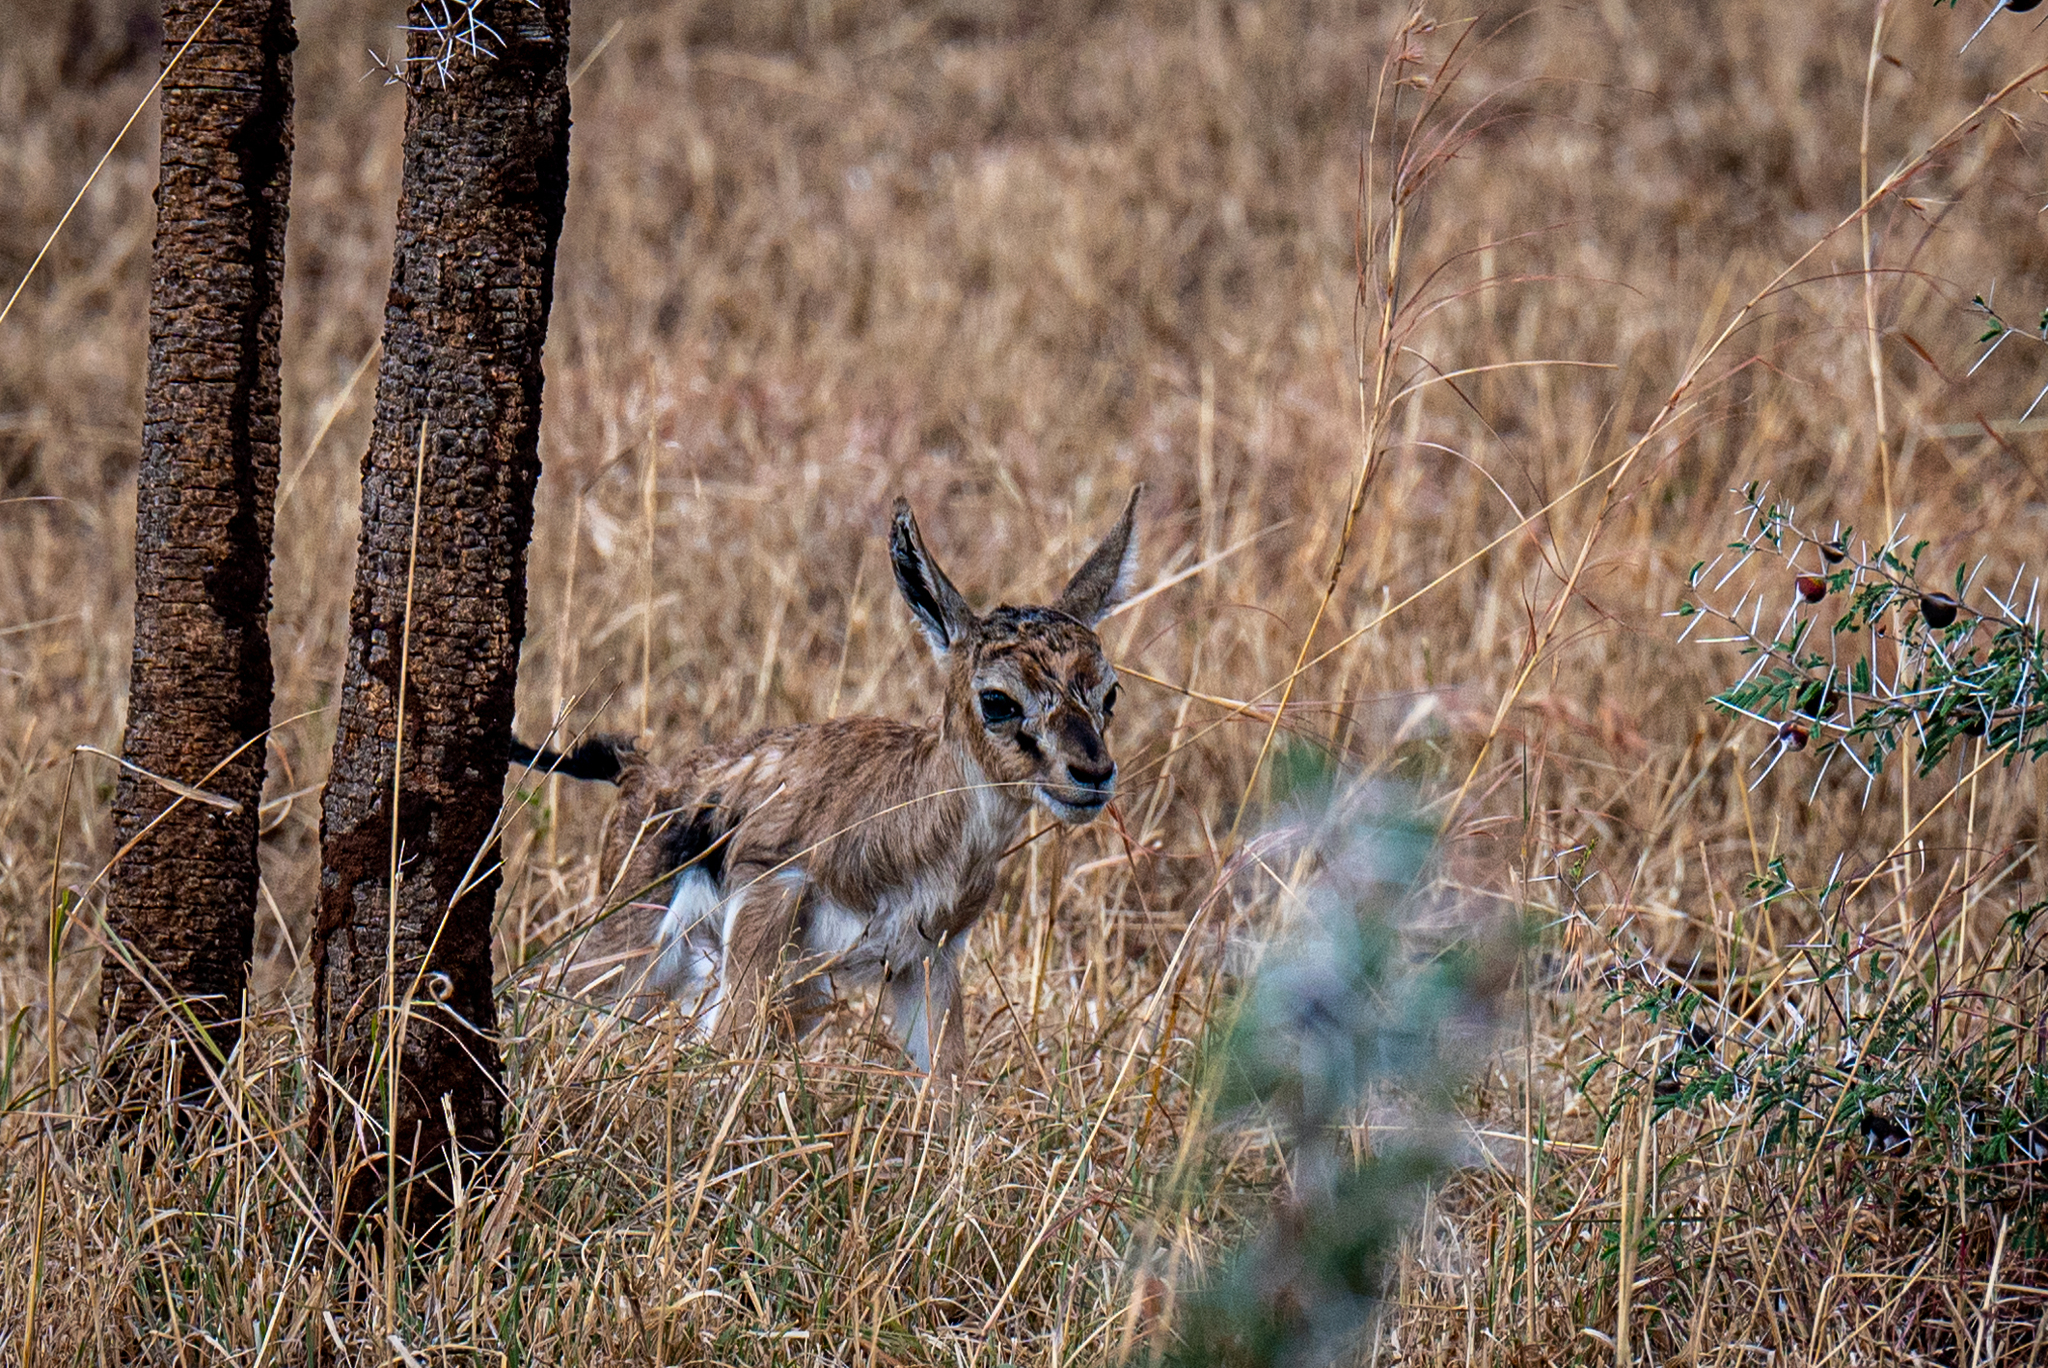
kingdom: Animalia
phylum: Chordata
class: Mammalia
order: Artiodactyla
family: Bovidae
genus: Eudorcas
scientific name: Eudorcas thomsonii
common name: Thomson's gazelle
